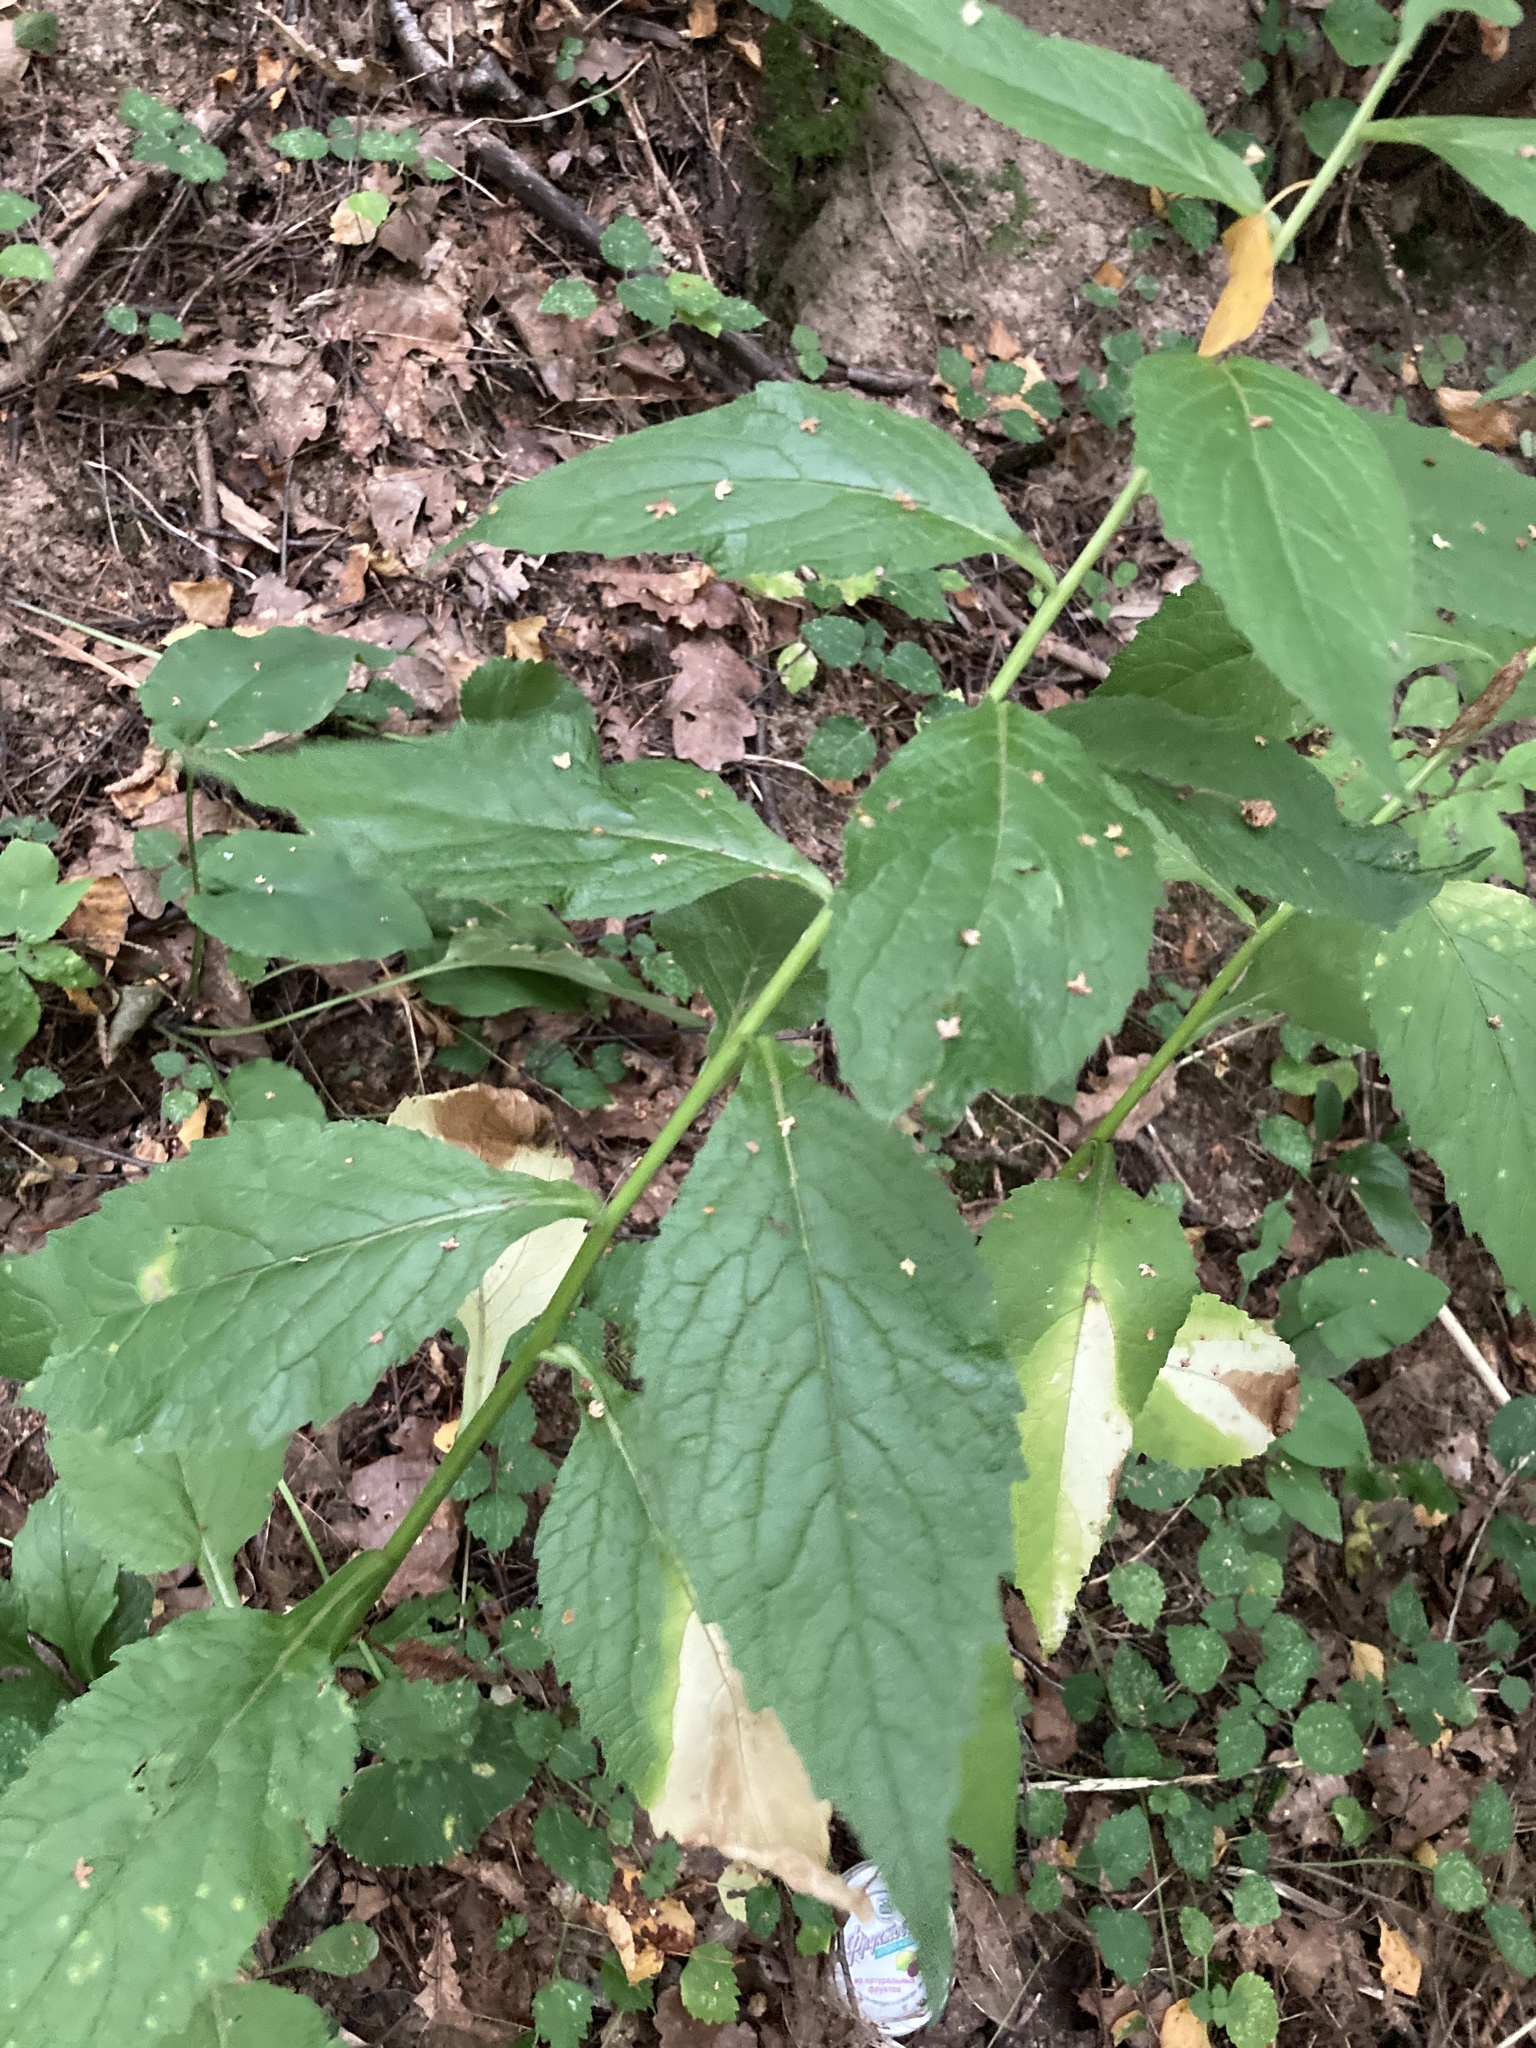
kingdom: Plantae
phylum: Tracheophyta
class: Magnoliopsida
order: Asterales
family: Campanulaceae
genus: Campanula
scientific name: Campanula latifolia
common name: Giant bellflower
